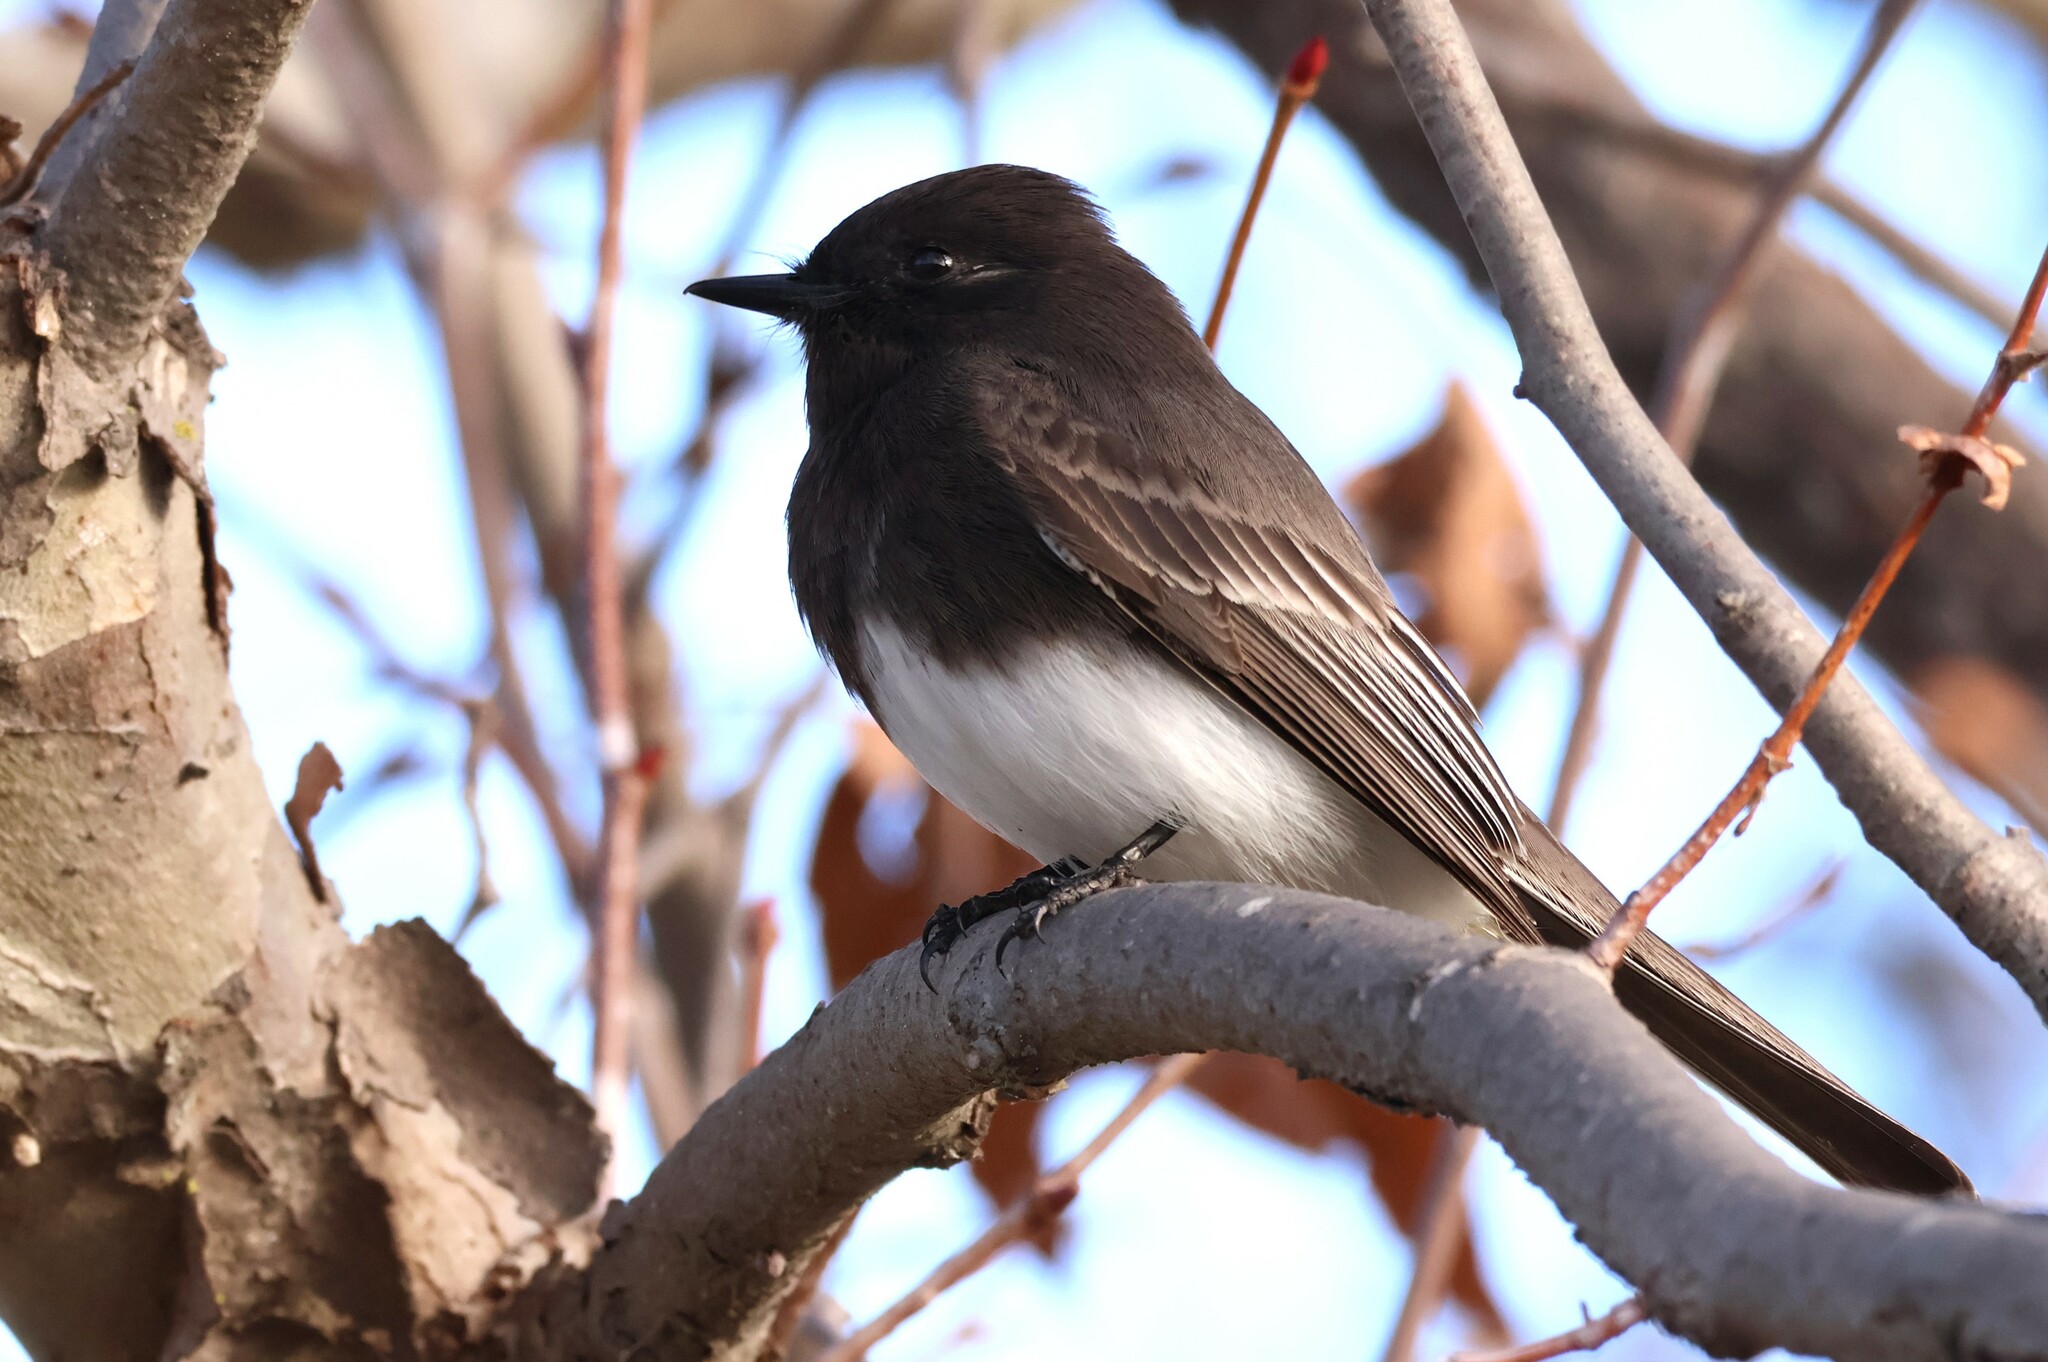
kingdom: Animalia
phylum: Chordata
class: Aves
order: Passeriformes
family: Tyrannidae
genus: Sayornis
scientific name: Sayornis nigricans
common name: Black phoebe
